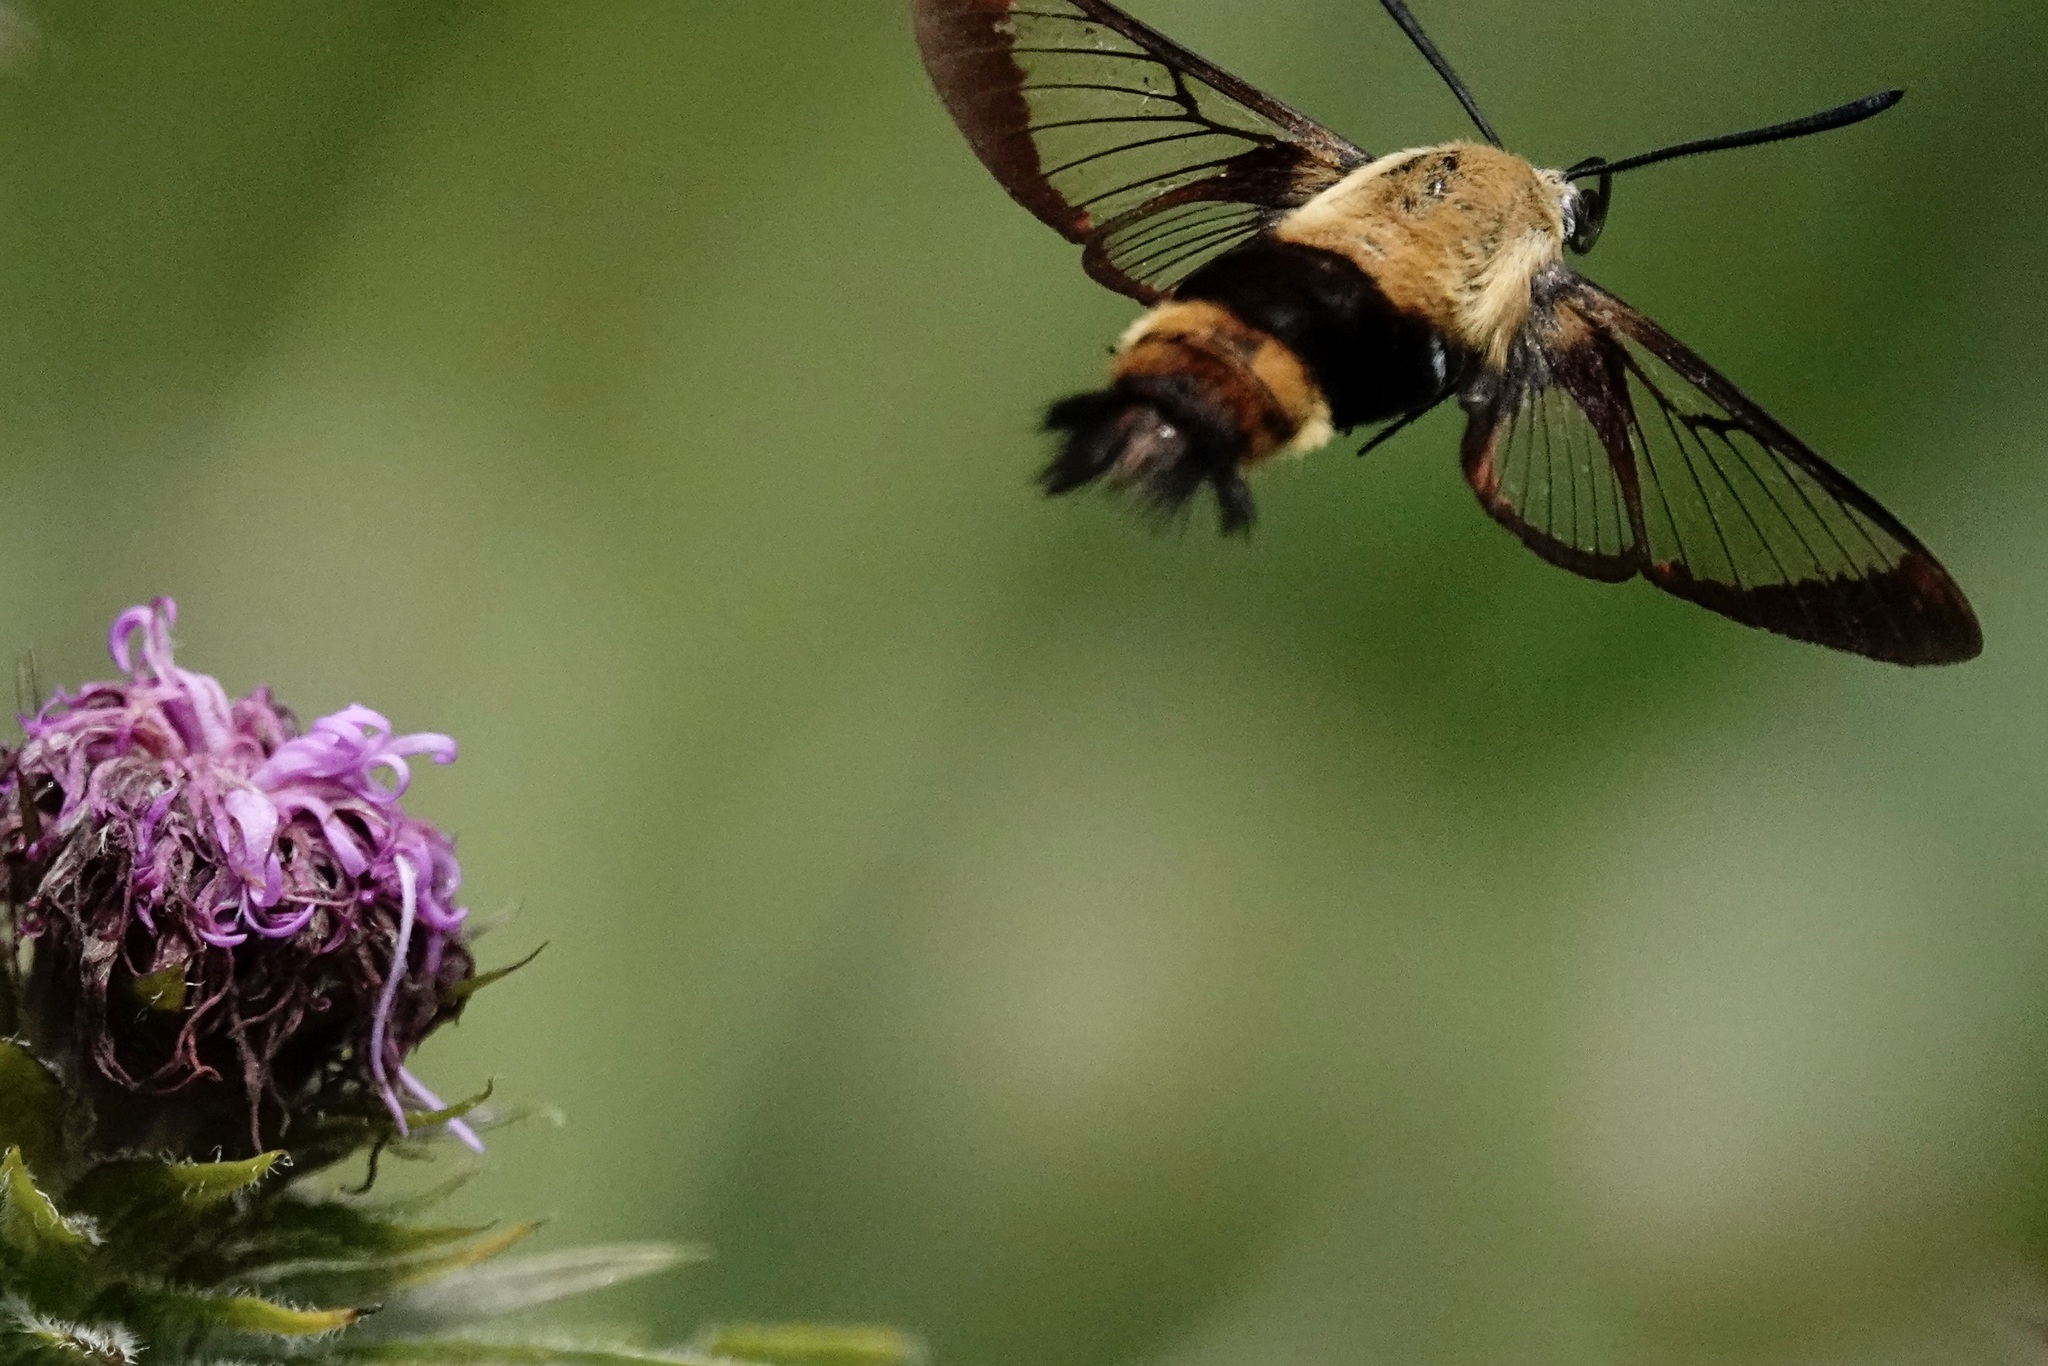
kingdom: Animalia
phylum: Arthropoda
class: Insecta
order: Lepidoptera
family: Sphingidae
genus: Hemaris
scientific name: Hemaris diffinis
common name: Bumblebee moth
